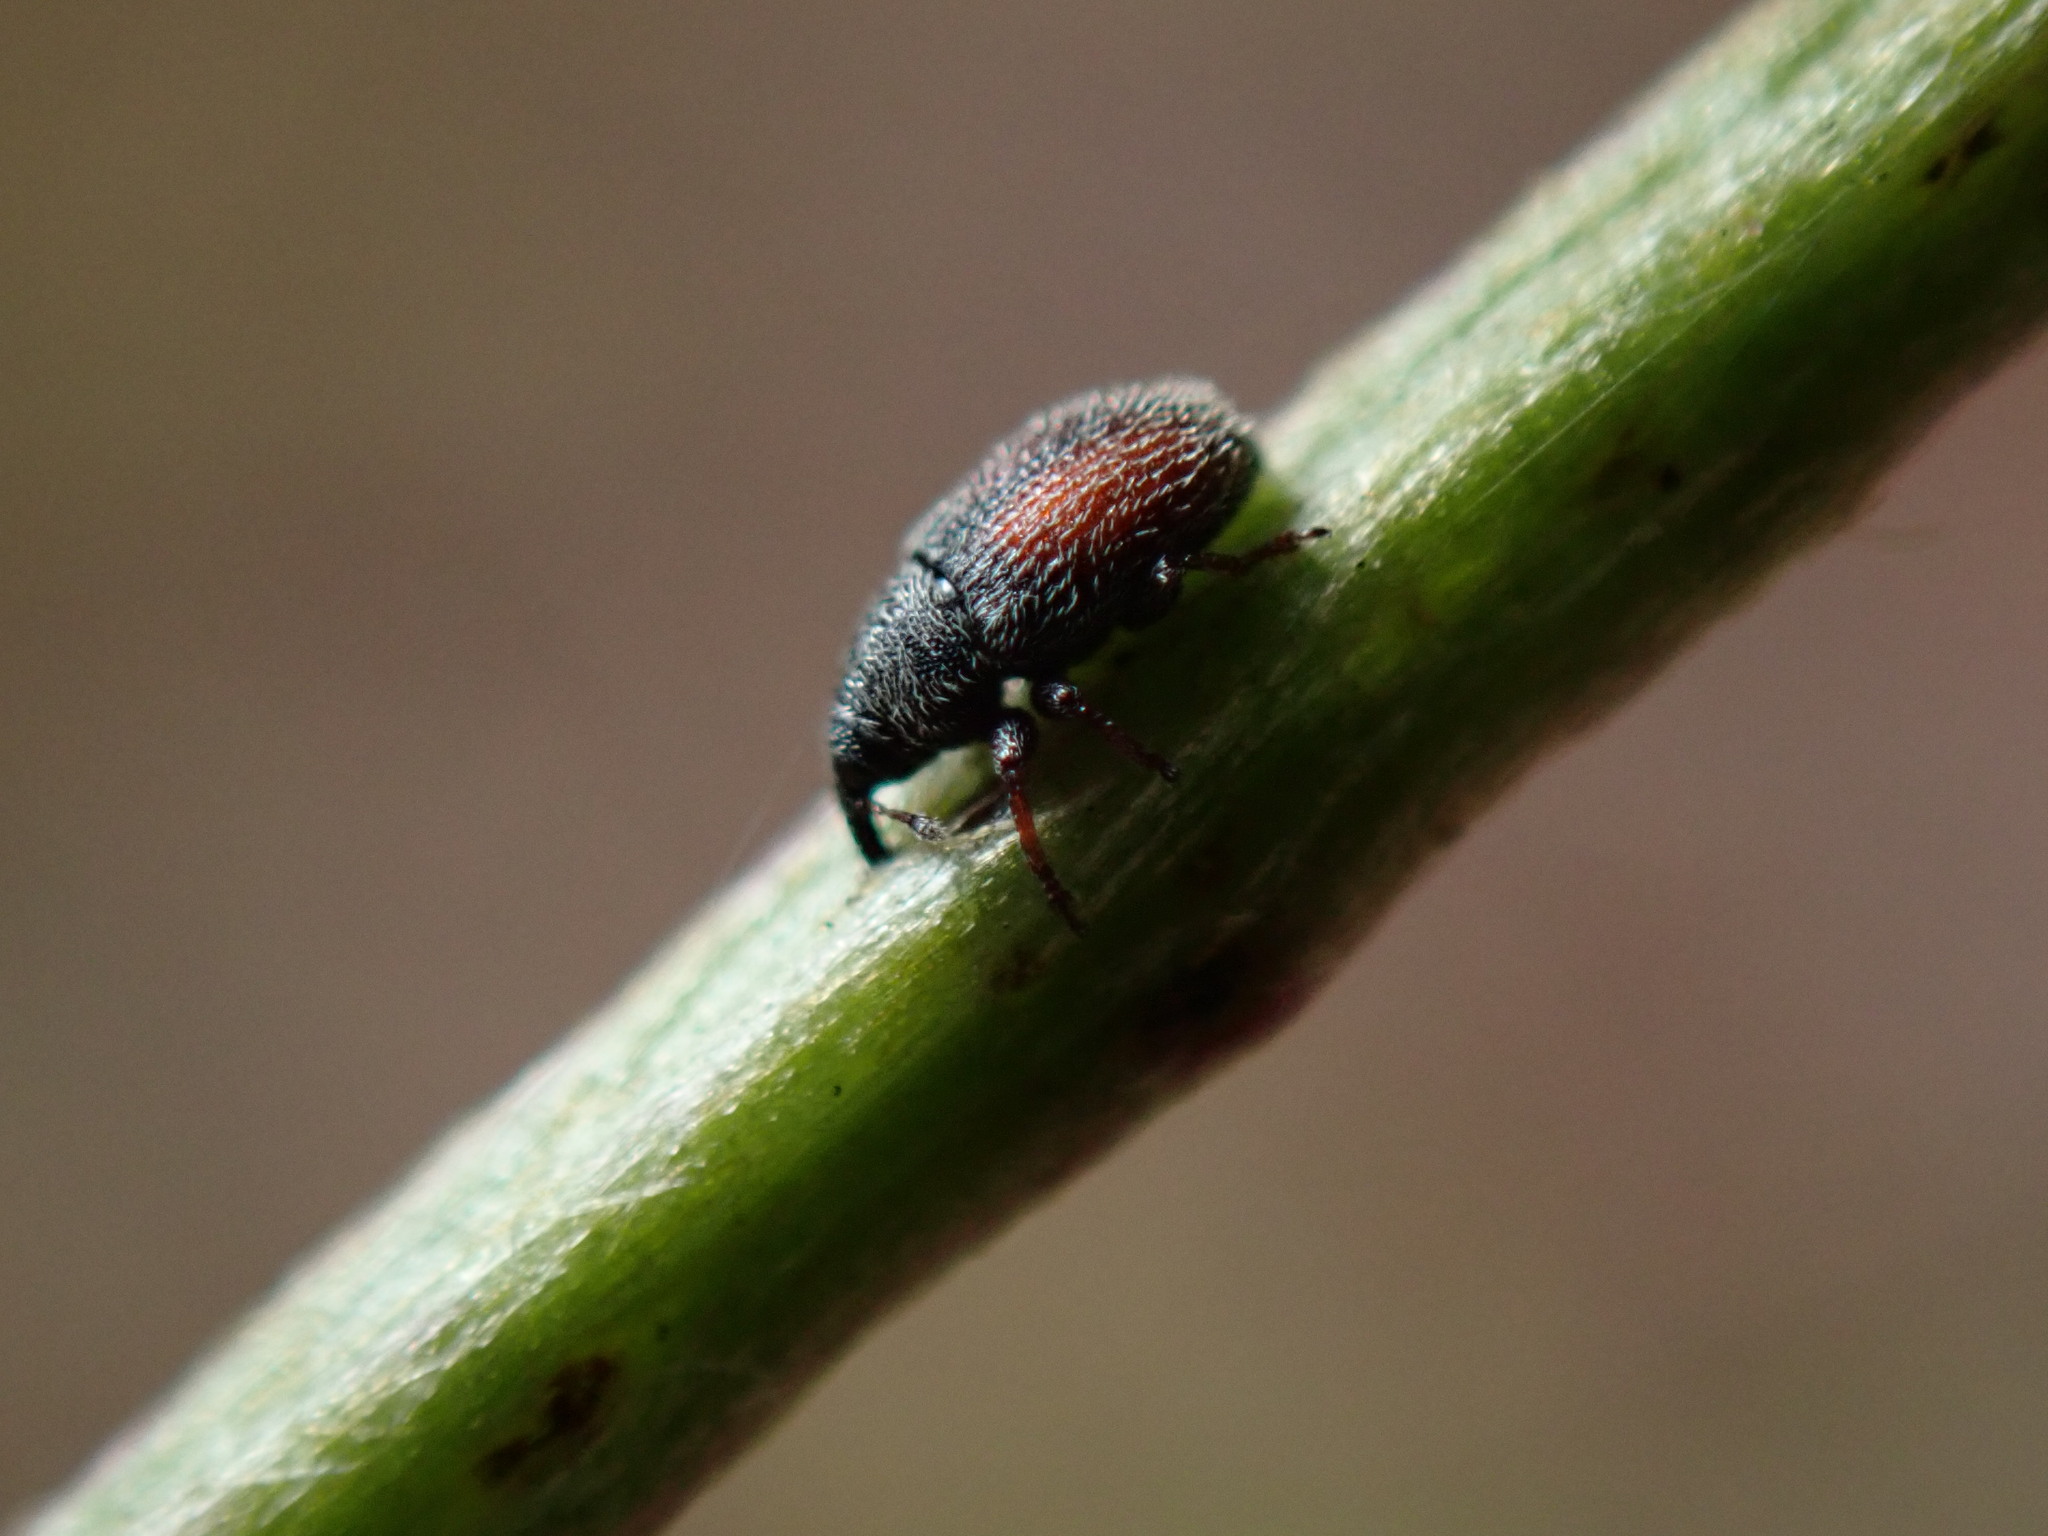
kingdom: Animalia
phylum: Arthropoda
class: Insecta
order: Coleoptera
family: Curculionidae
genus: Mecinus
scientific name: Mecinus pascuorum
